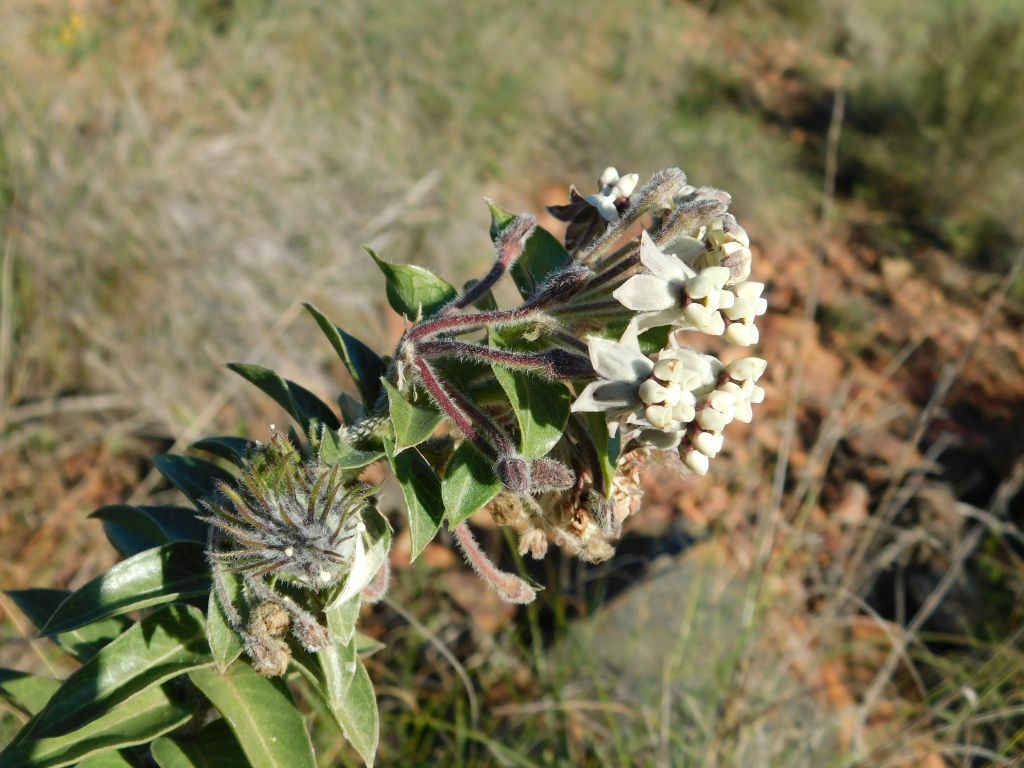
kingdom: Plantae
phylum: Tracheophyta
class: Magnoliopsida
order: Gentianales
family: Apocynaceae
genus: Gomphocarpus
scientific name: Gomphocarpus cancellatus
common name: Wild cotton
